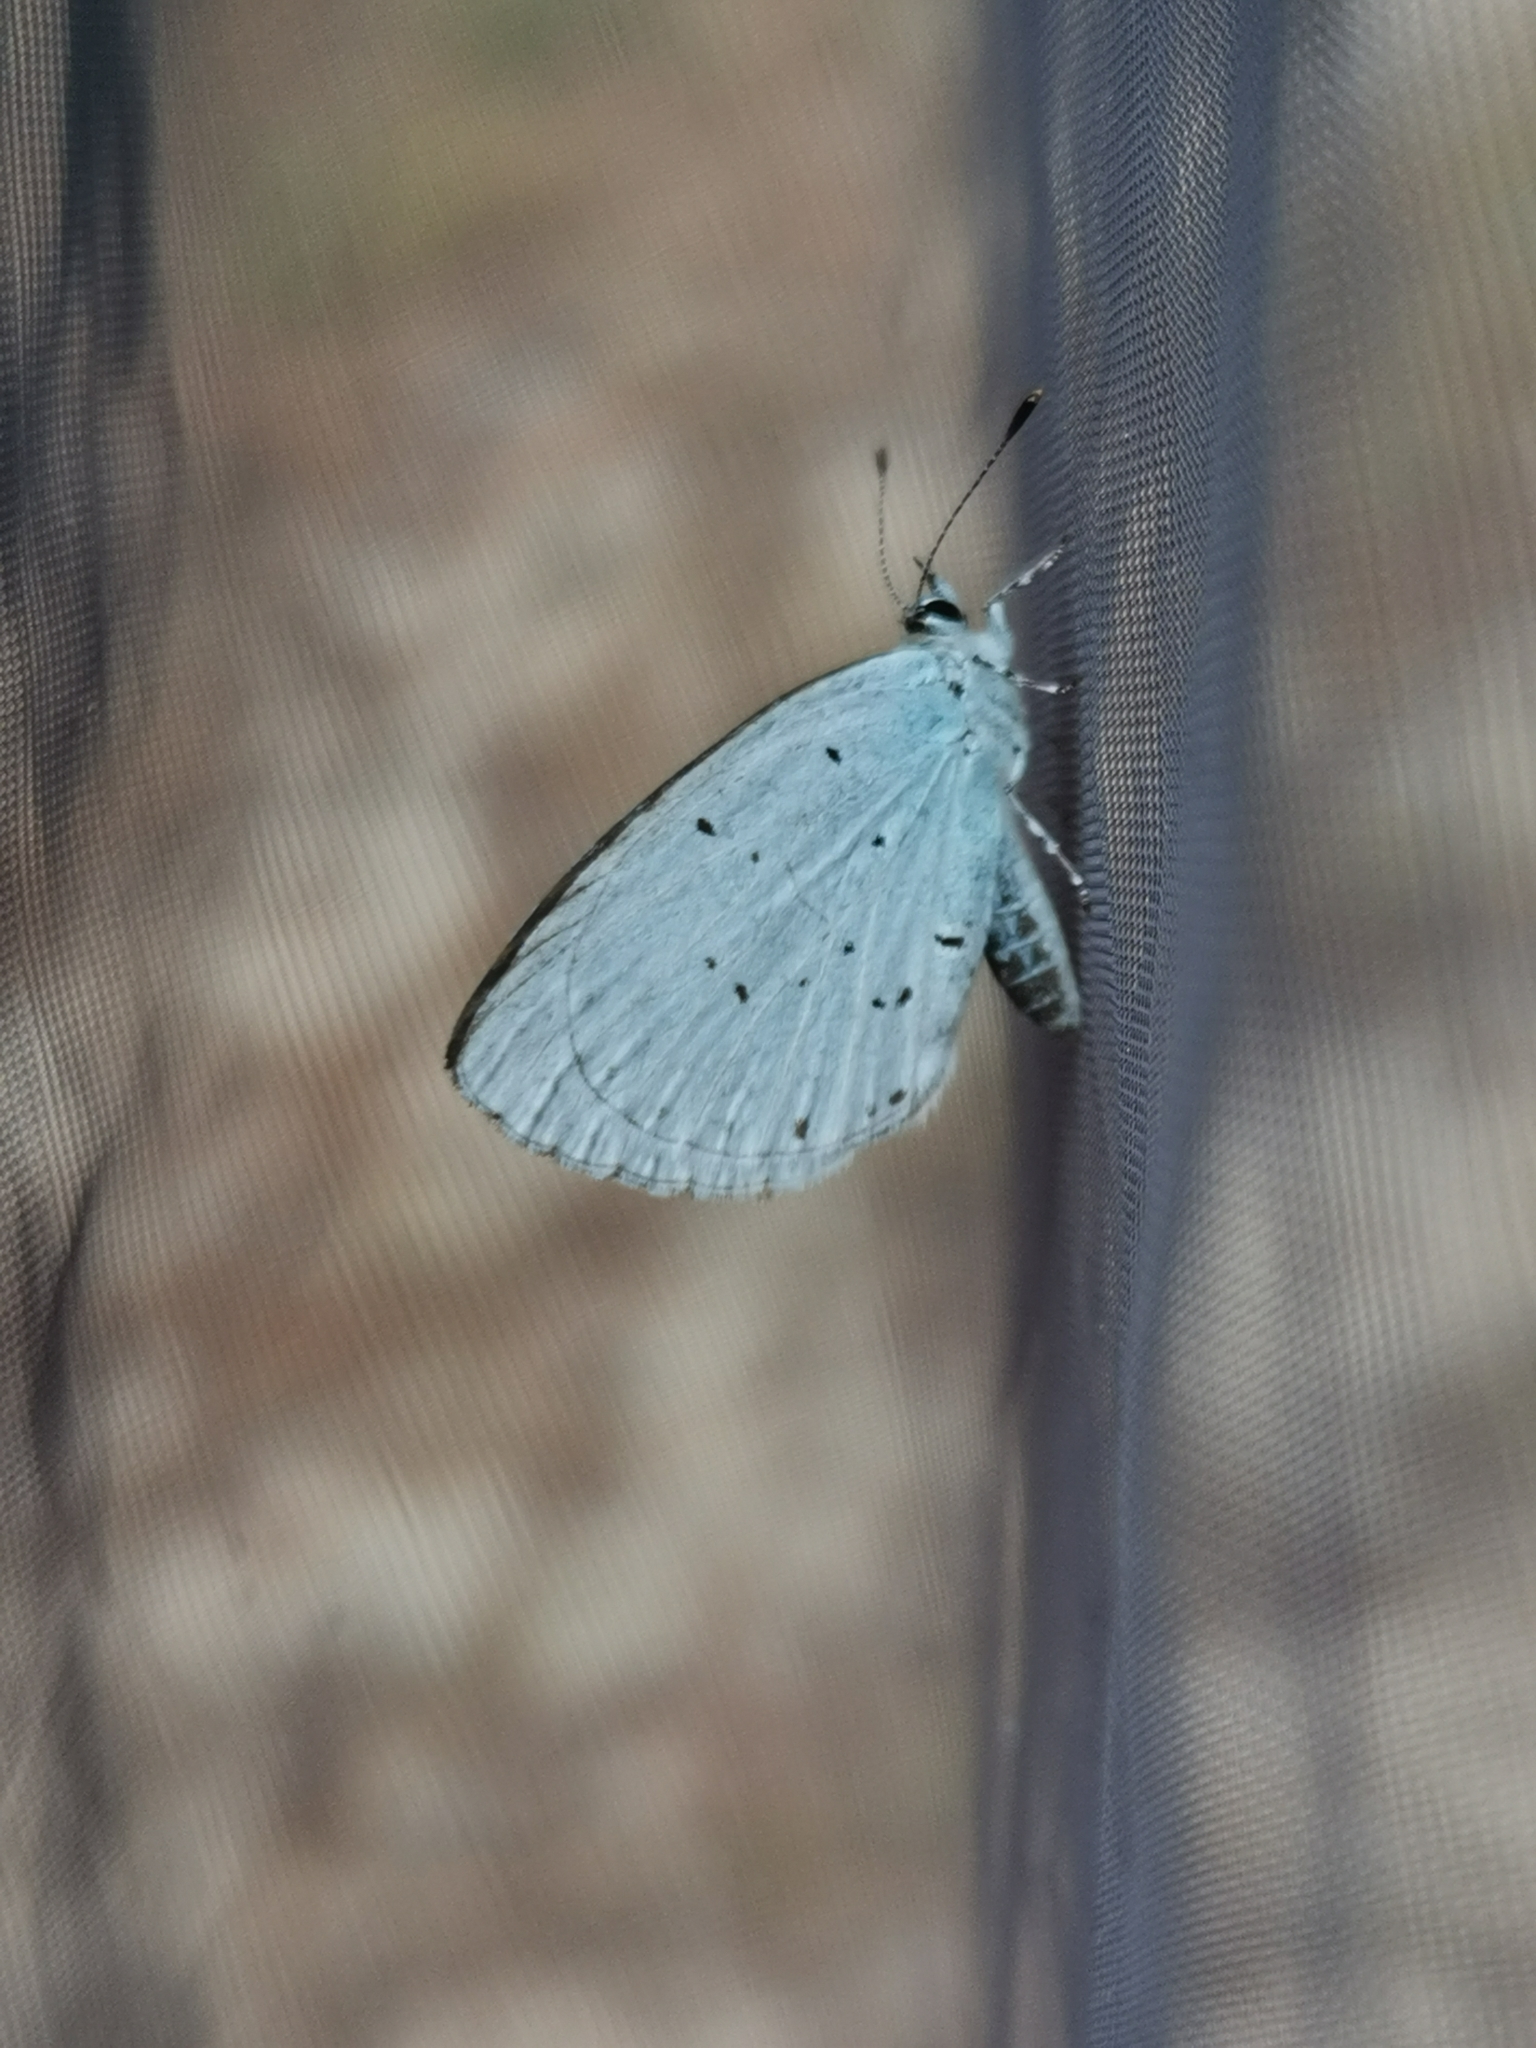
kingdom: Animalia
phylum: Arthropoda
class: Insecta
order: Lepidoptera
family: Lycaenidae
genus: Celastrina
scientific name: Celastrina argiolus
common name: Holly blue
